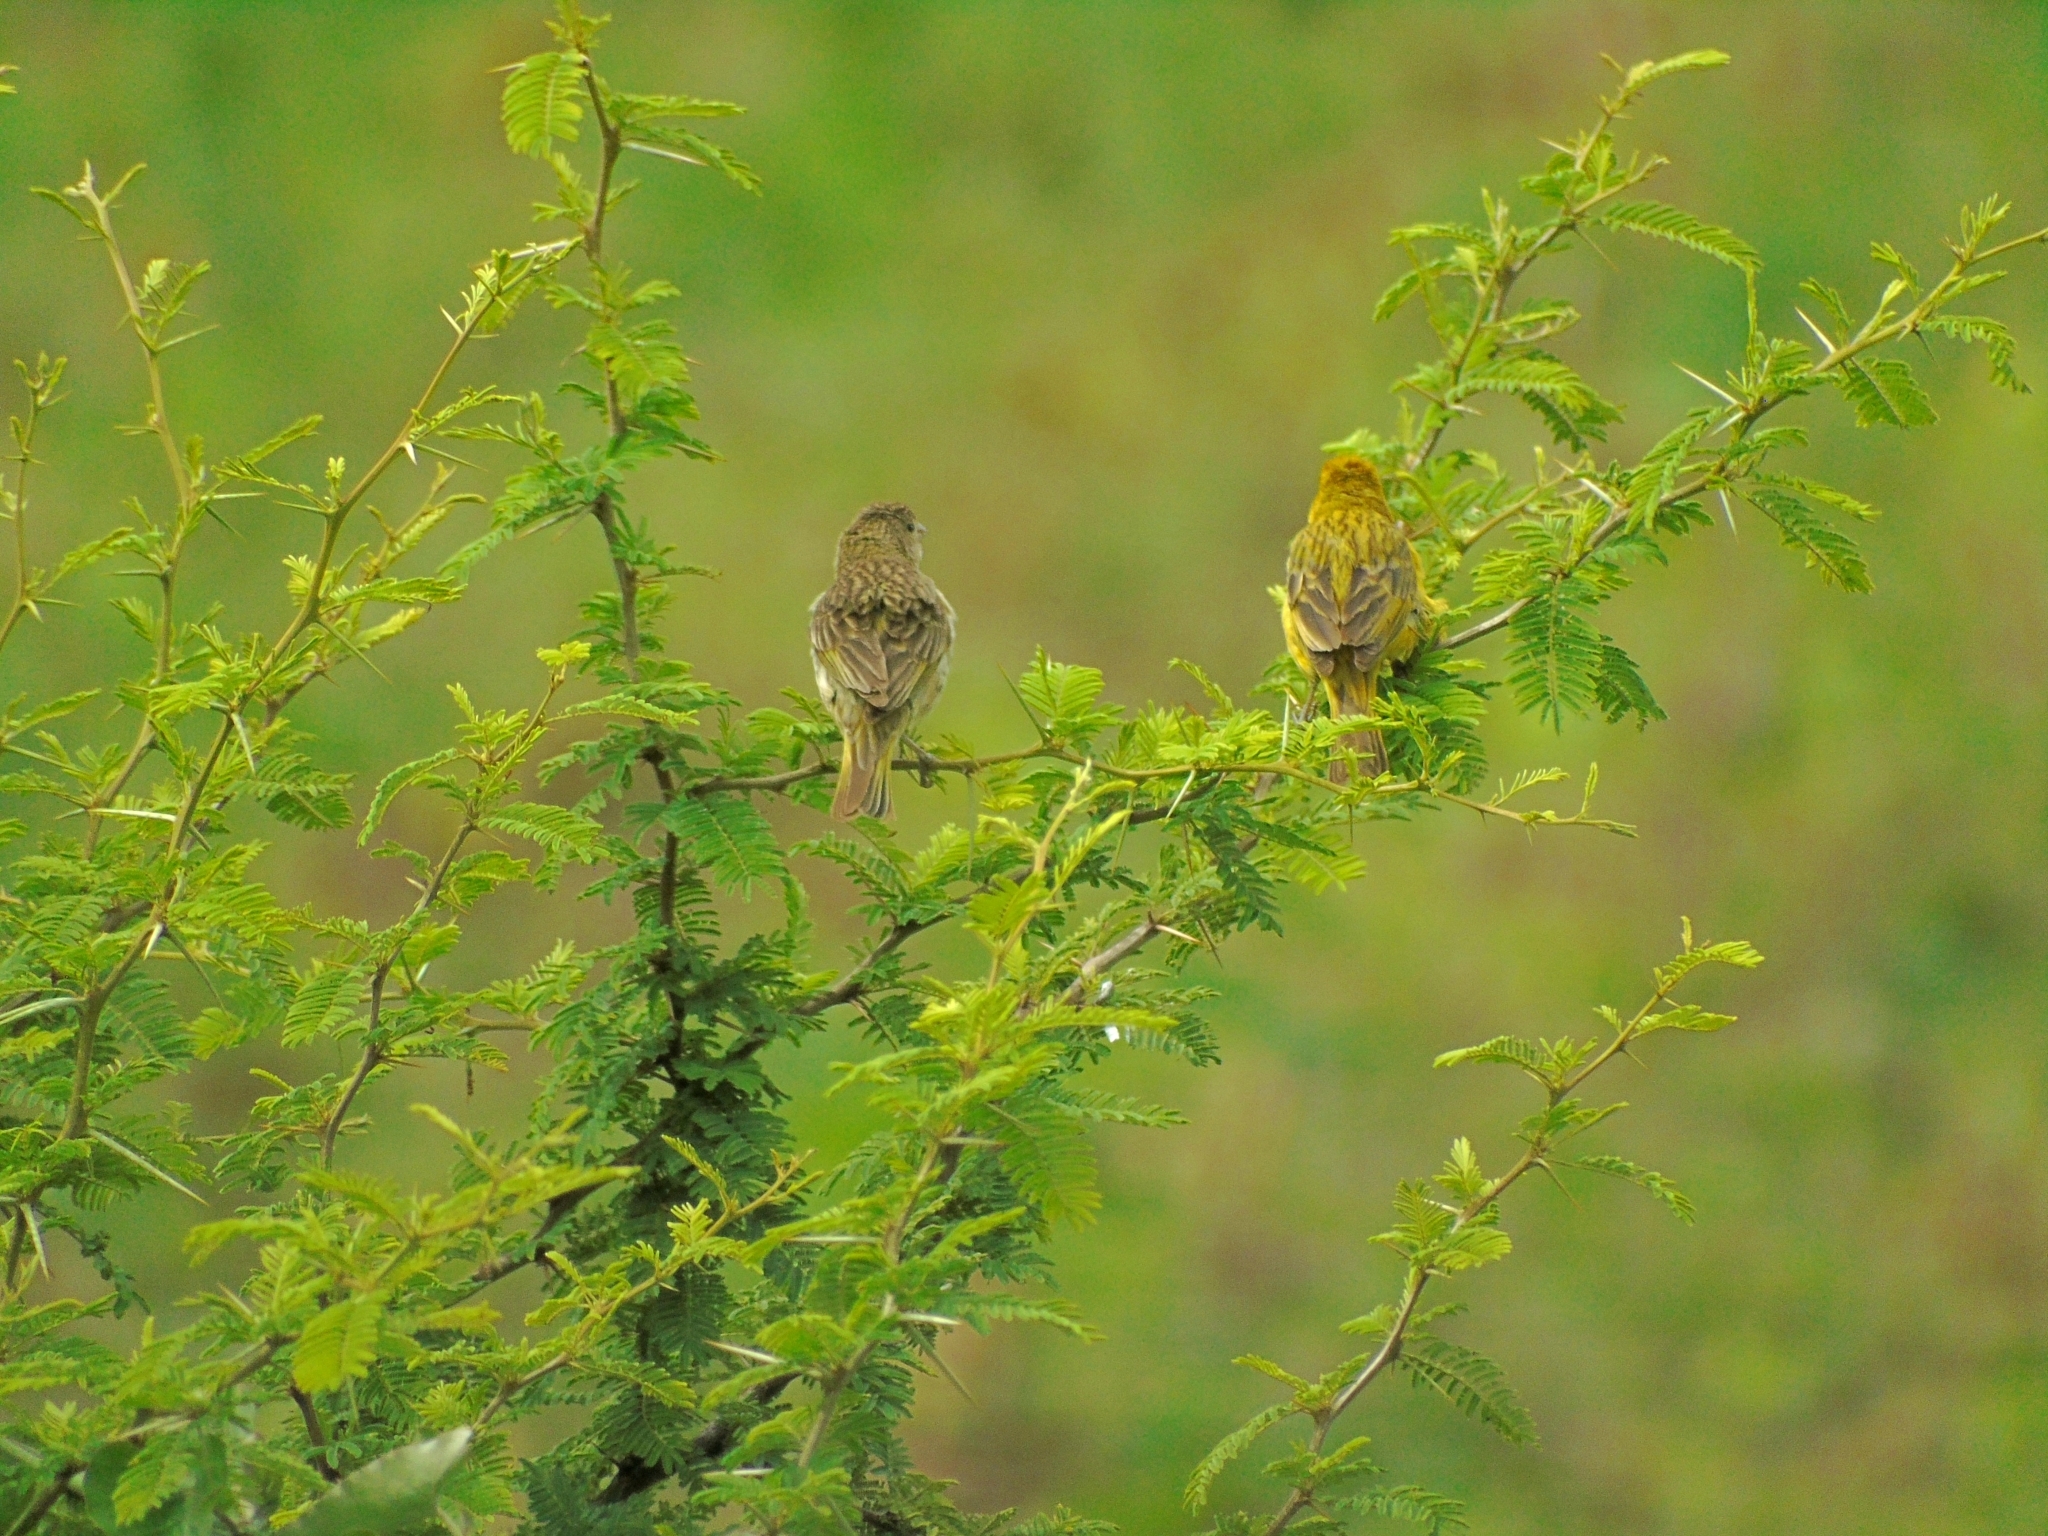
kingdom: Animalia
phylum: Chordata
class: Aves
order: Passeriformes
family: Thraupidae
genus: Sicalis
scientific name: Sicalis flaveola
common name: Saffron finch
